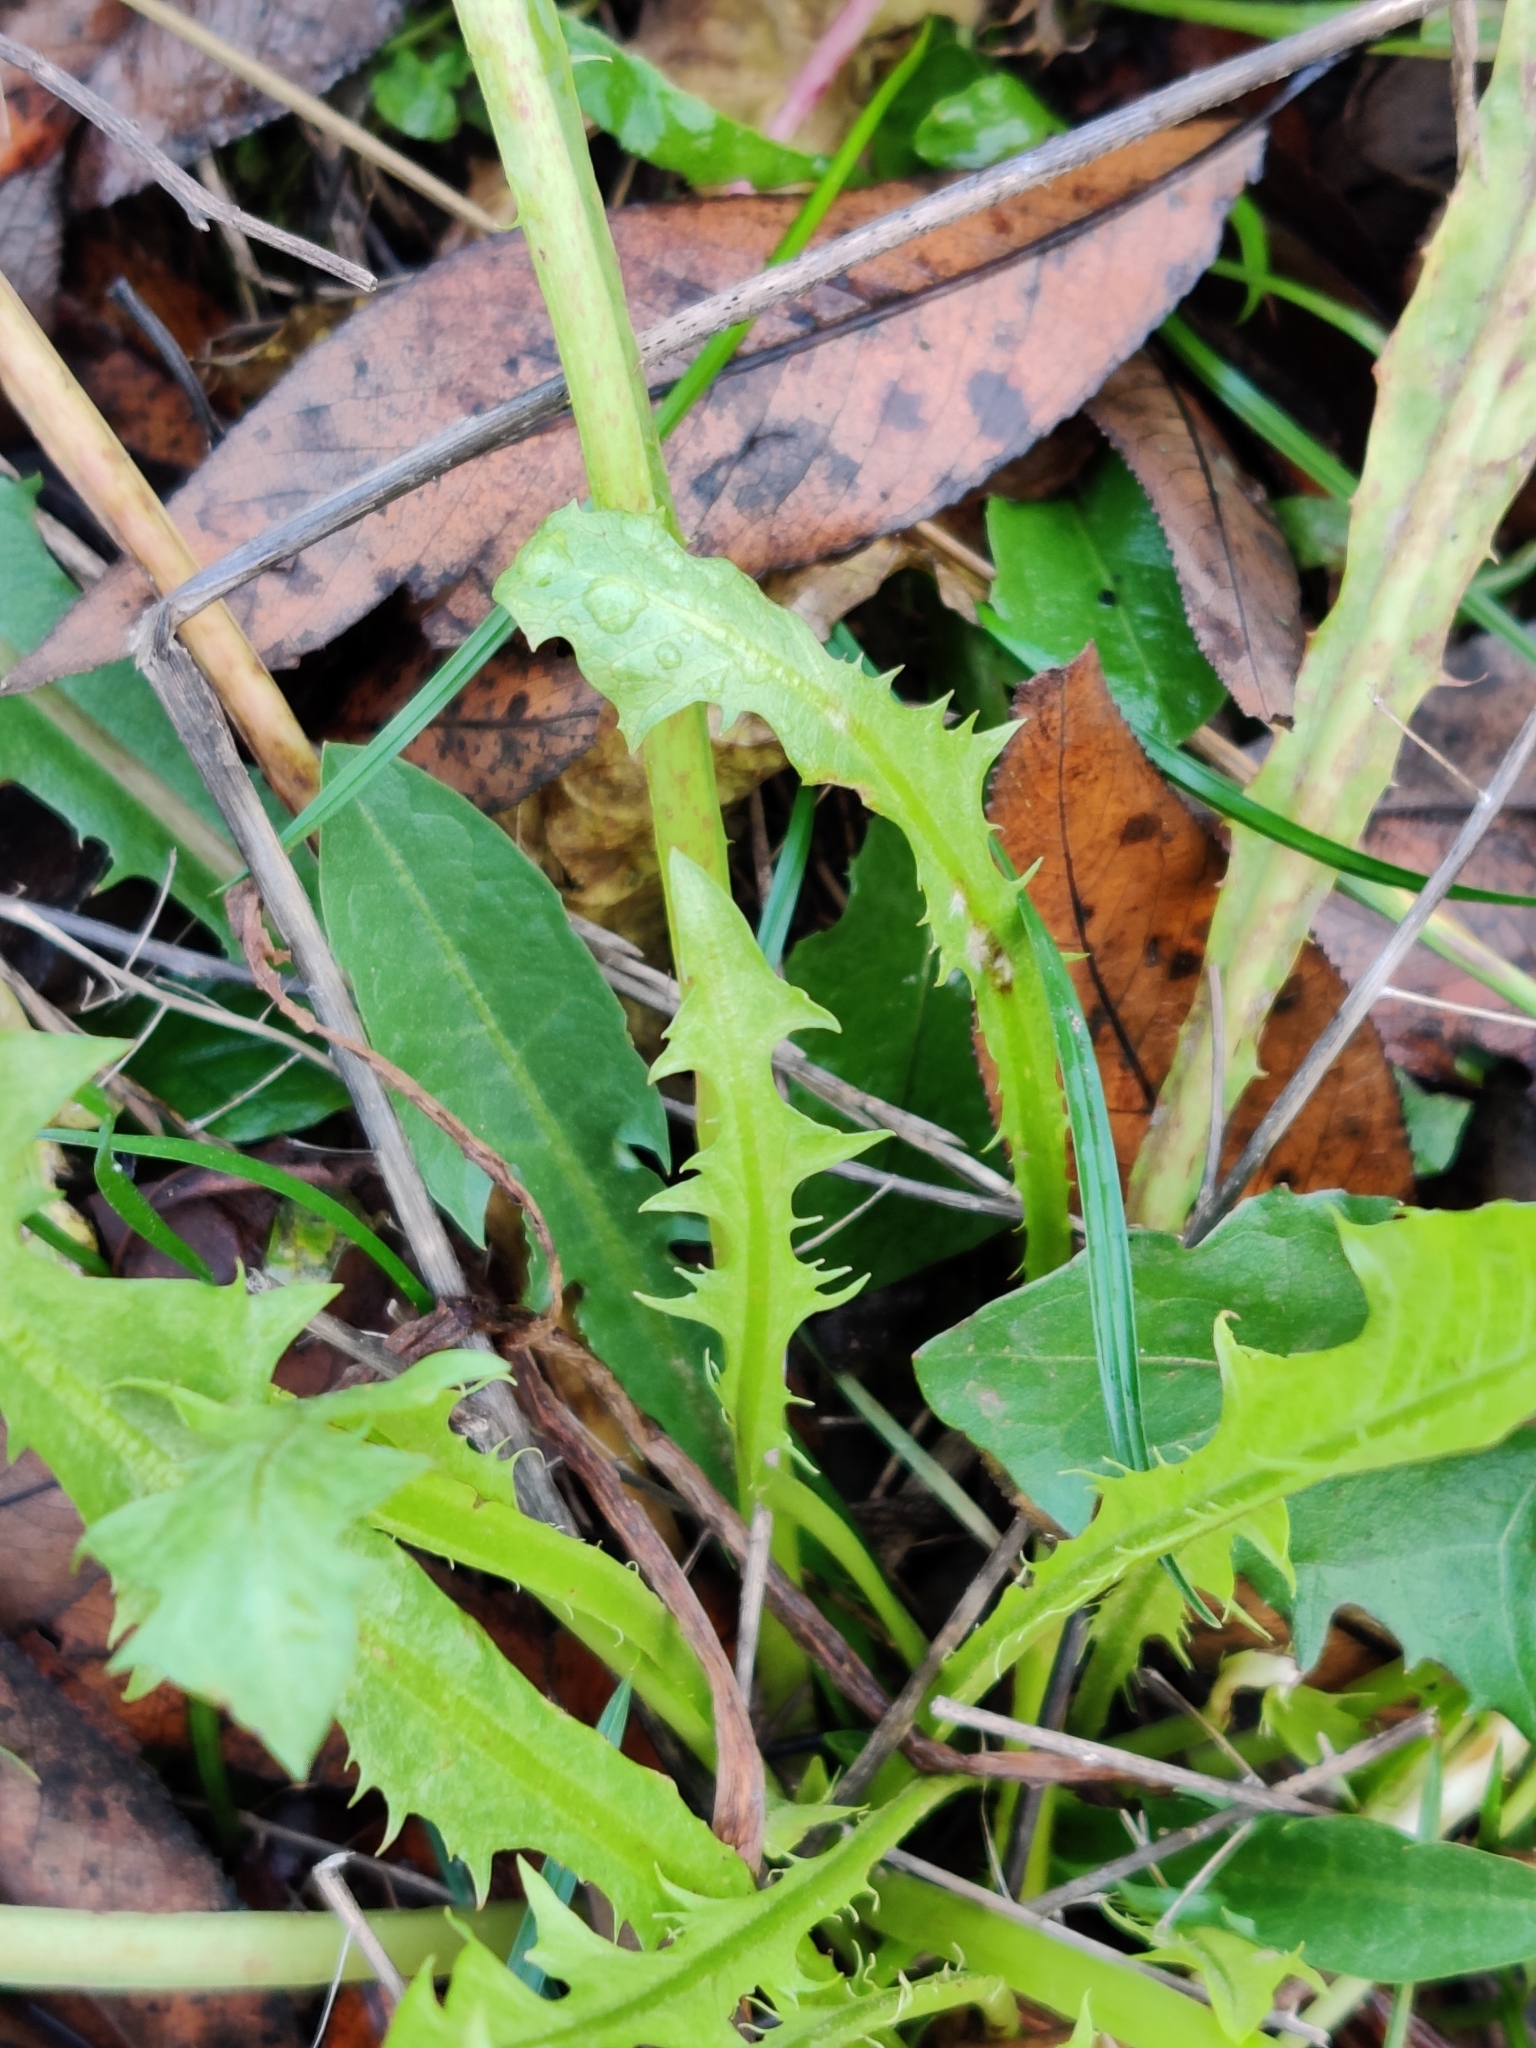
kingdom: Plantae
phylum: Tracheophyta
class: Magnoliopsida
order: Asterales
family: Asteraceae
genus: Taraxacum
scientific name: Taraxacum
